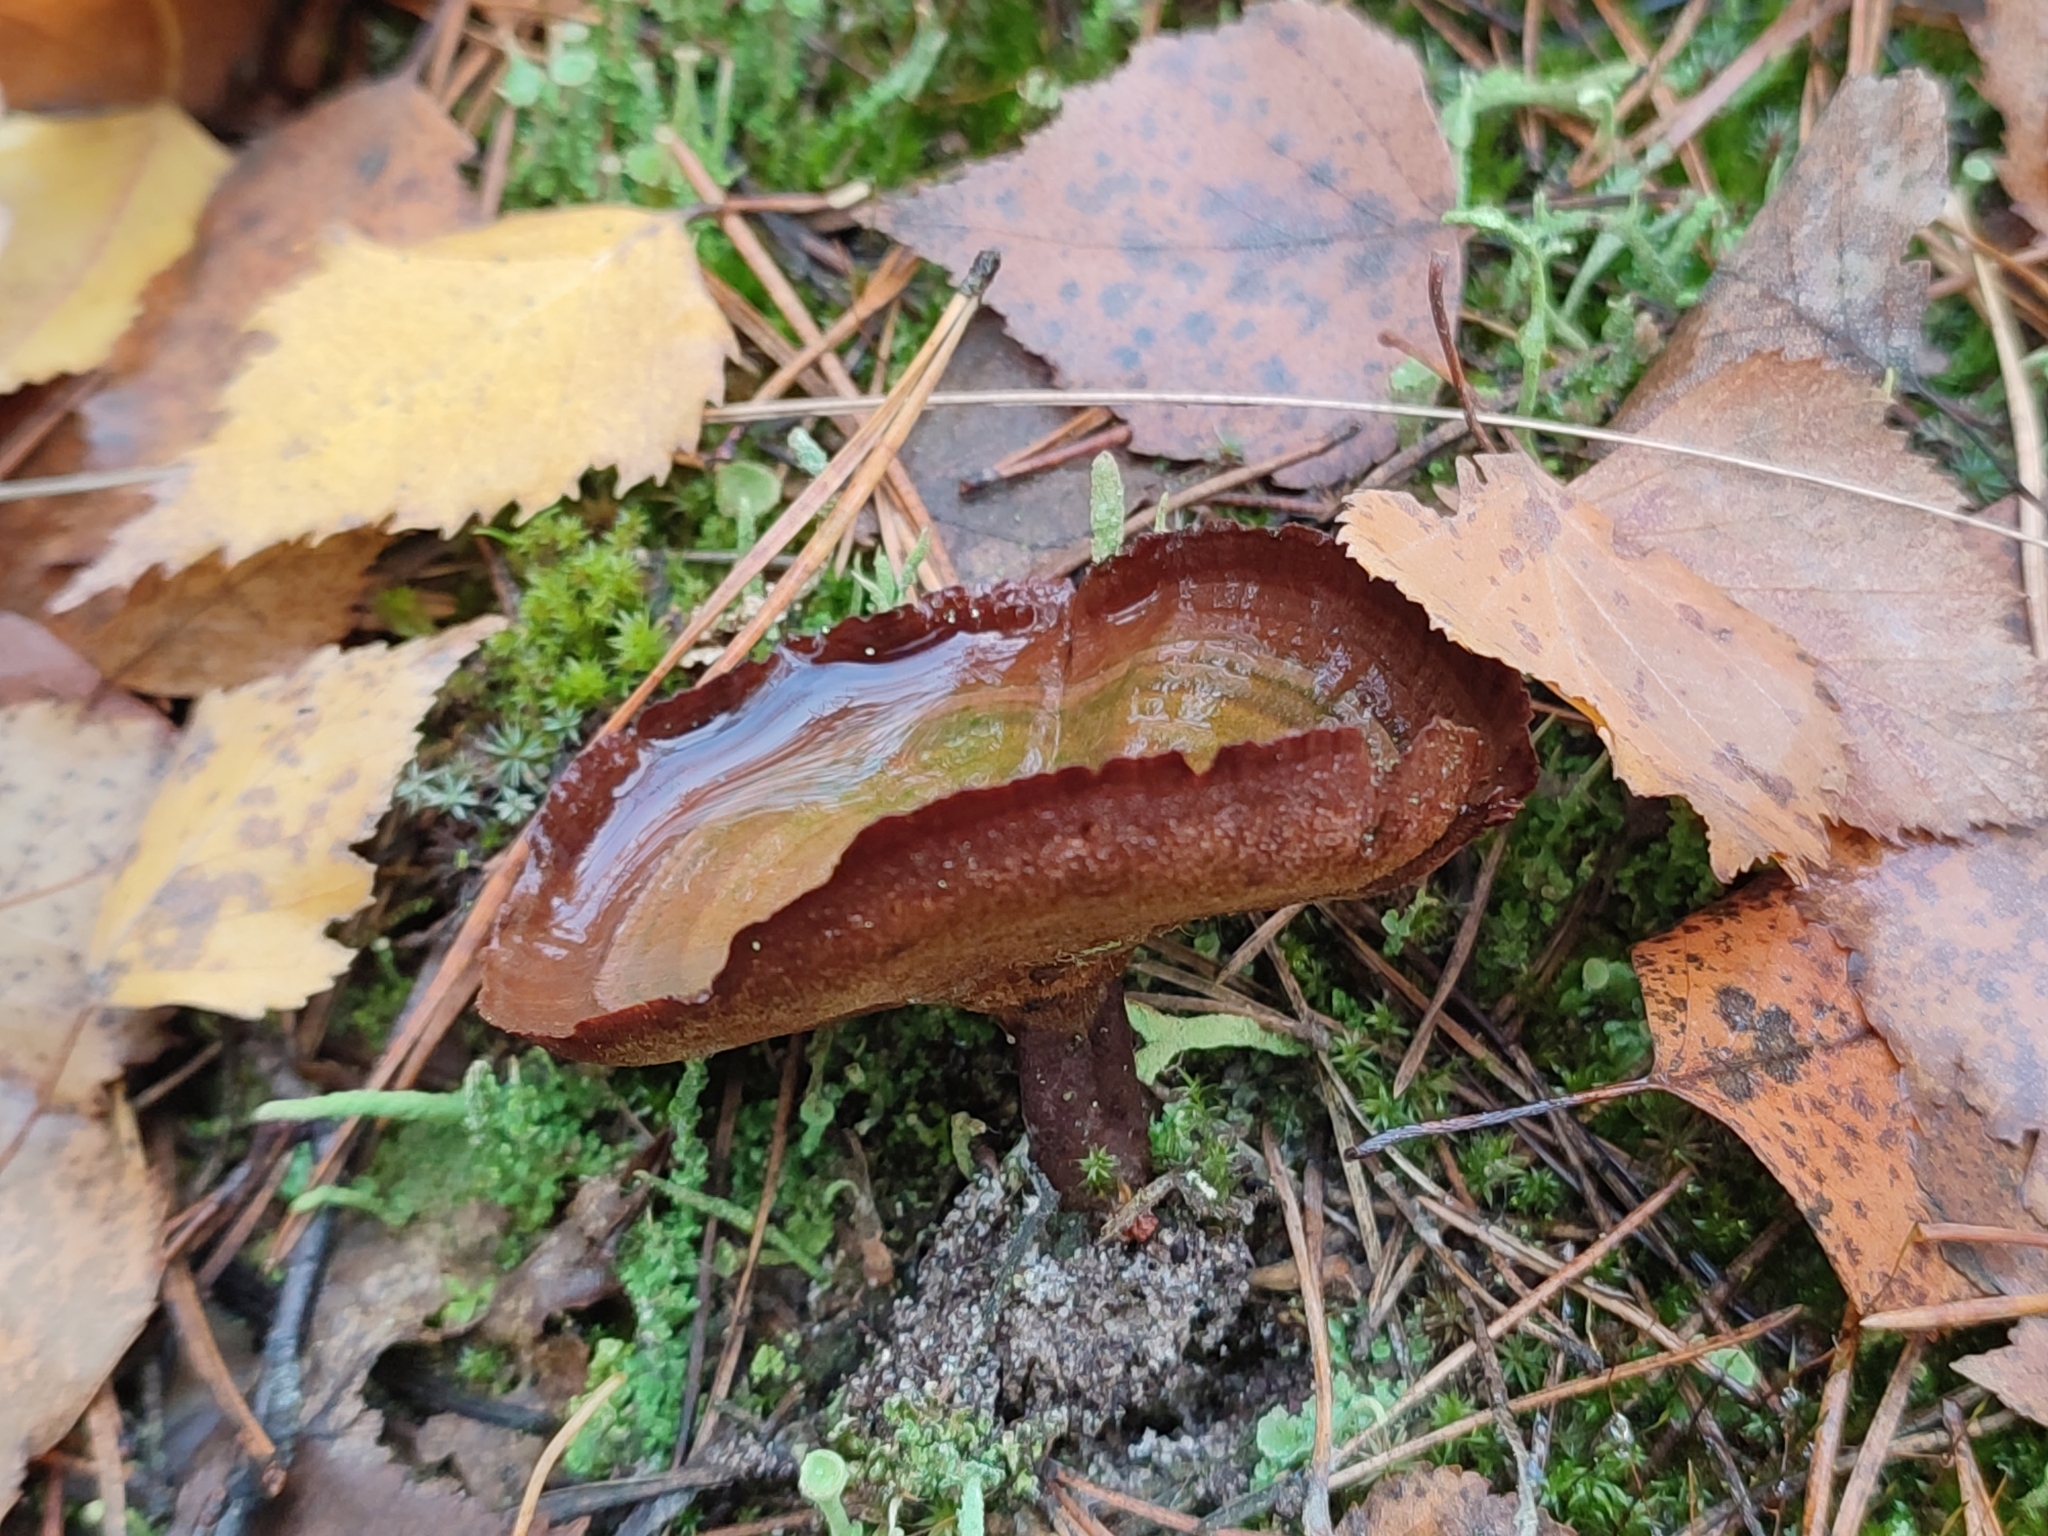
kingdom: Fungi
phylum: Basidiomycota
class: Agaricomycetes
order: Hymenochaetales
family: Hymenochaetaceae
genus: Coltricia
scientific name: Coltricia perennis
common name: Tiger's eye
